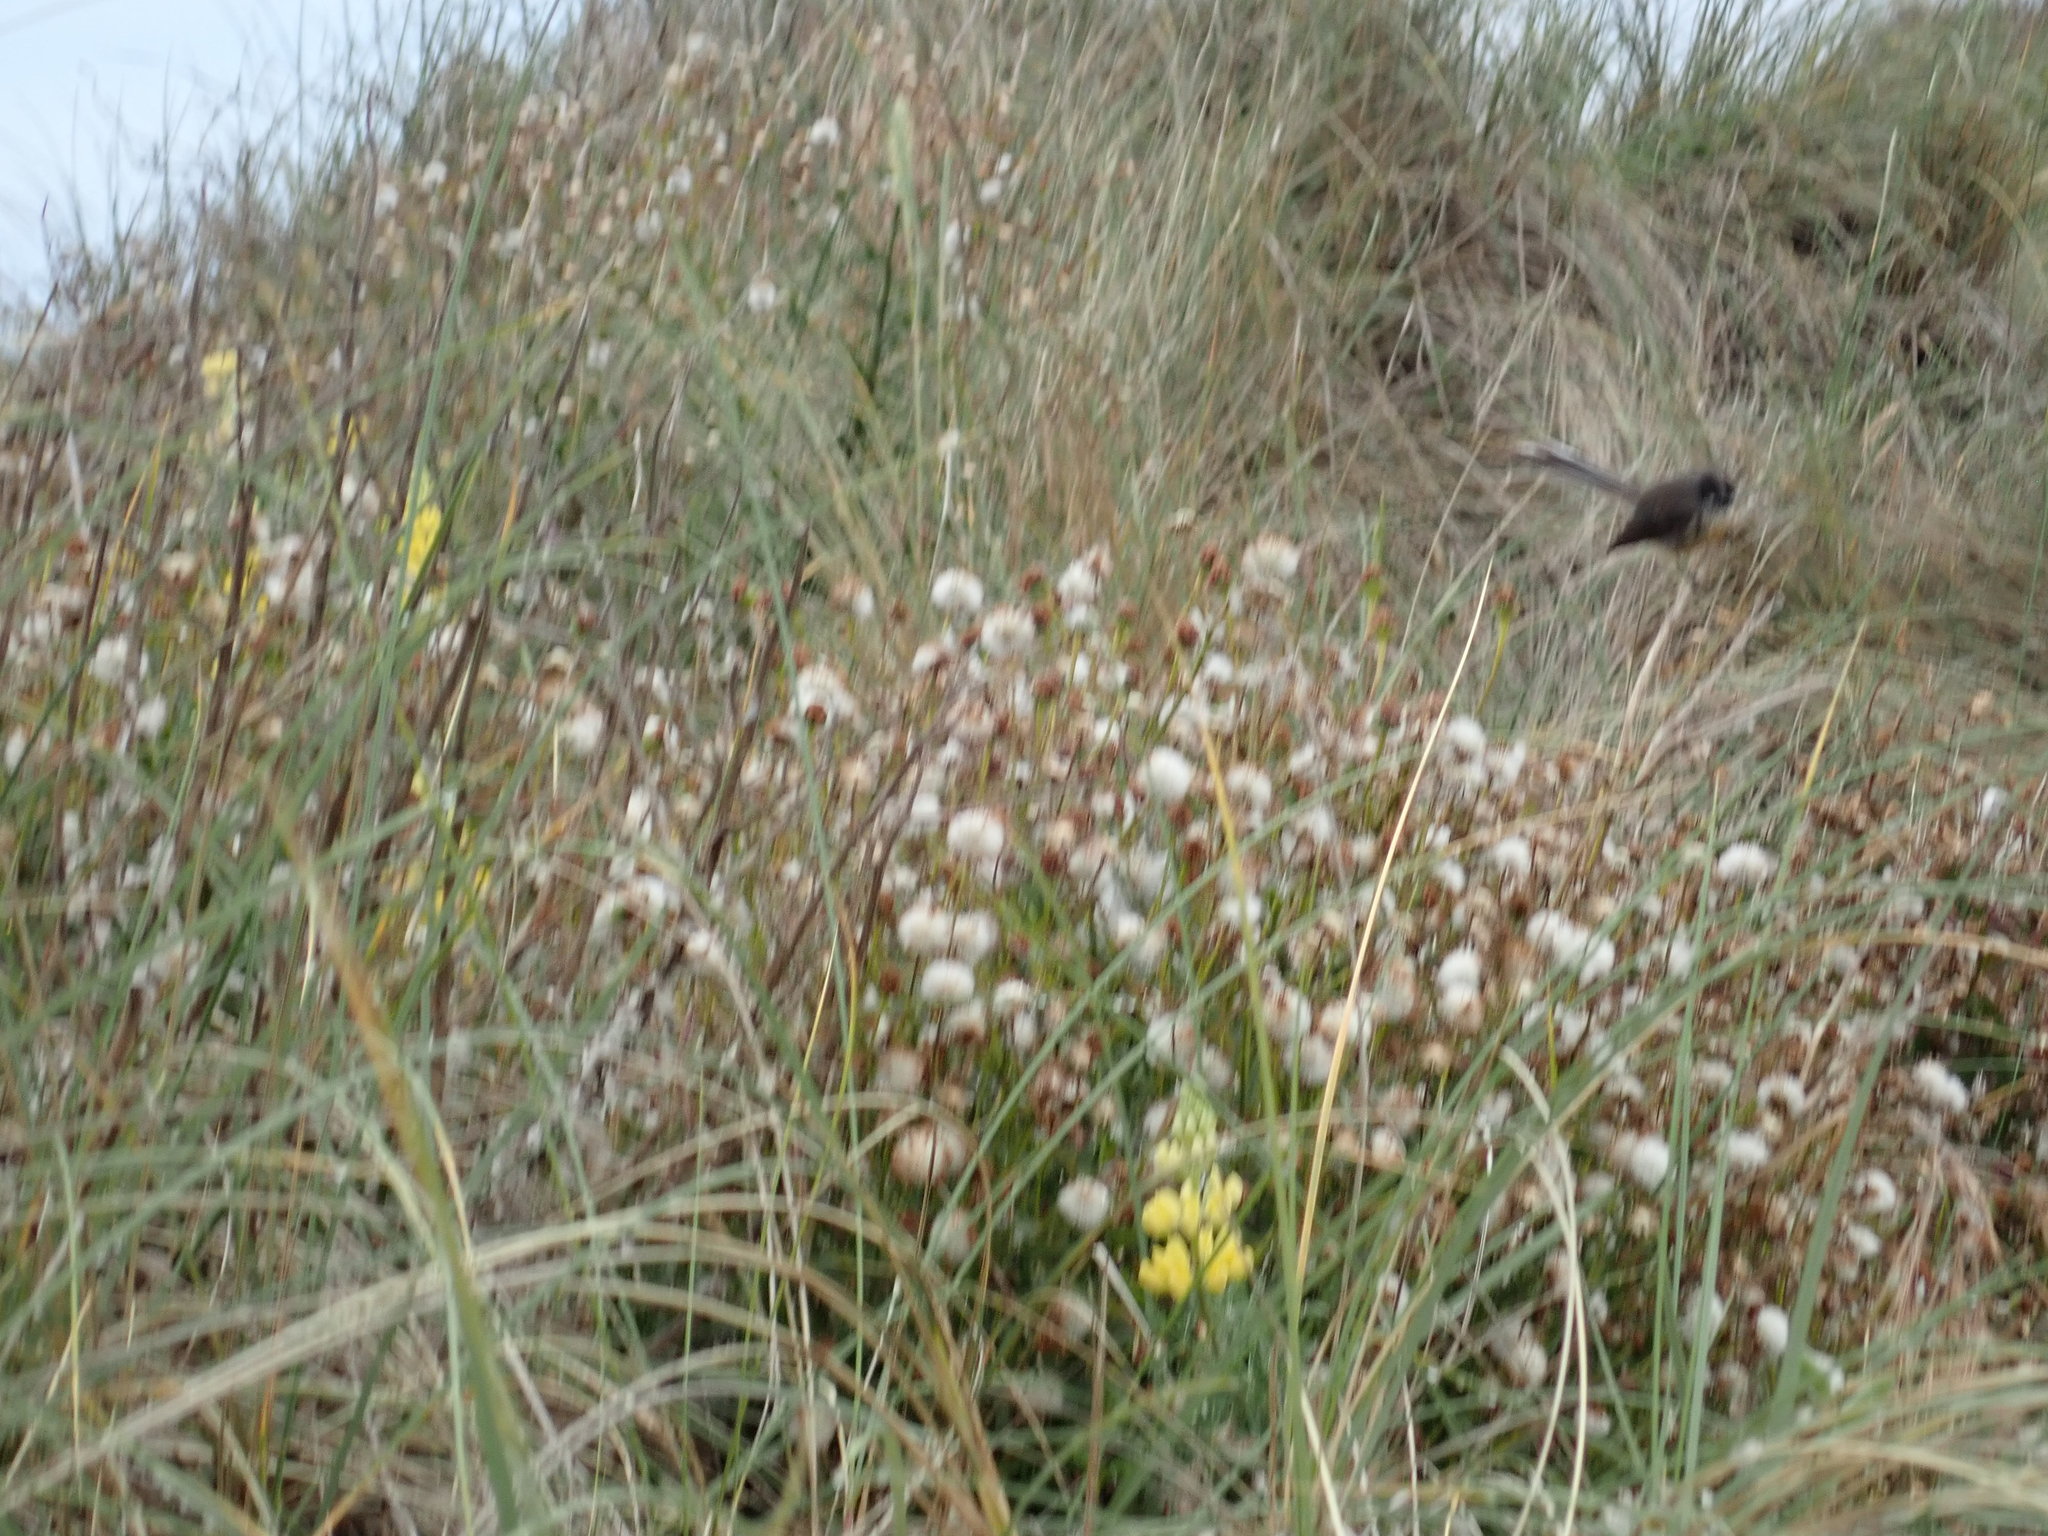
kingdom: Animalia
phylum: Chordata
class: Aves
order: Passeriformes
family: Rhipiduridae
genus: Rhipidura
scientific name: Rhipidura fuliginosa
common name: New zealand fantail
